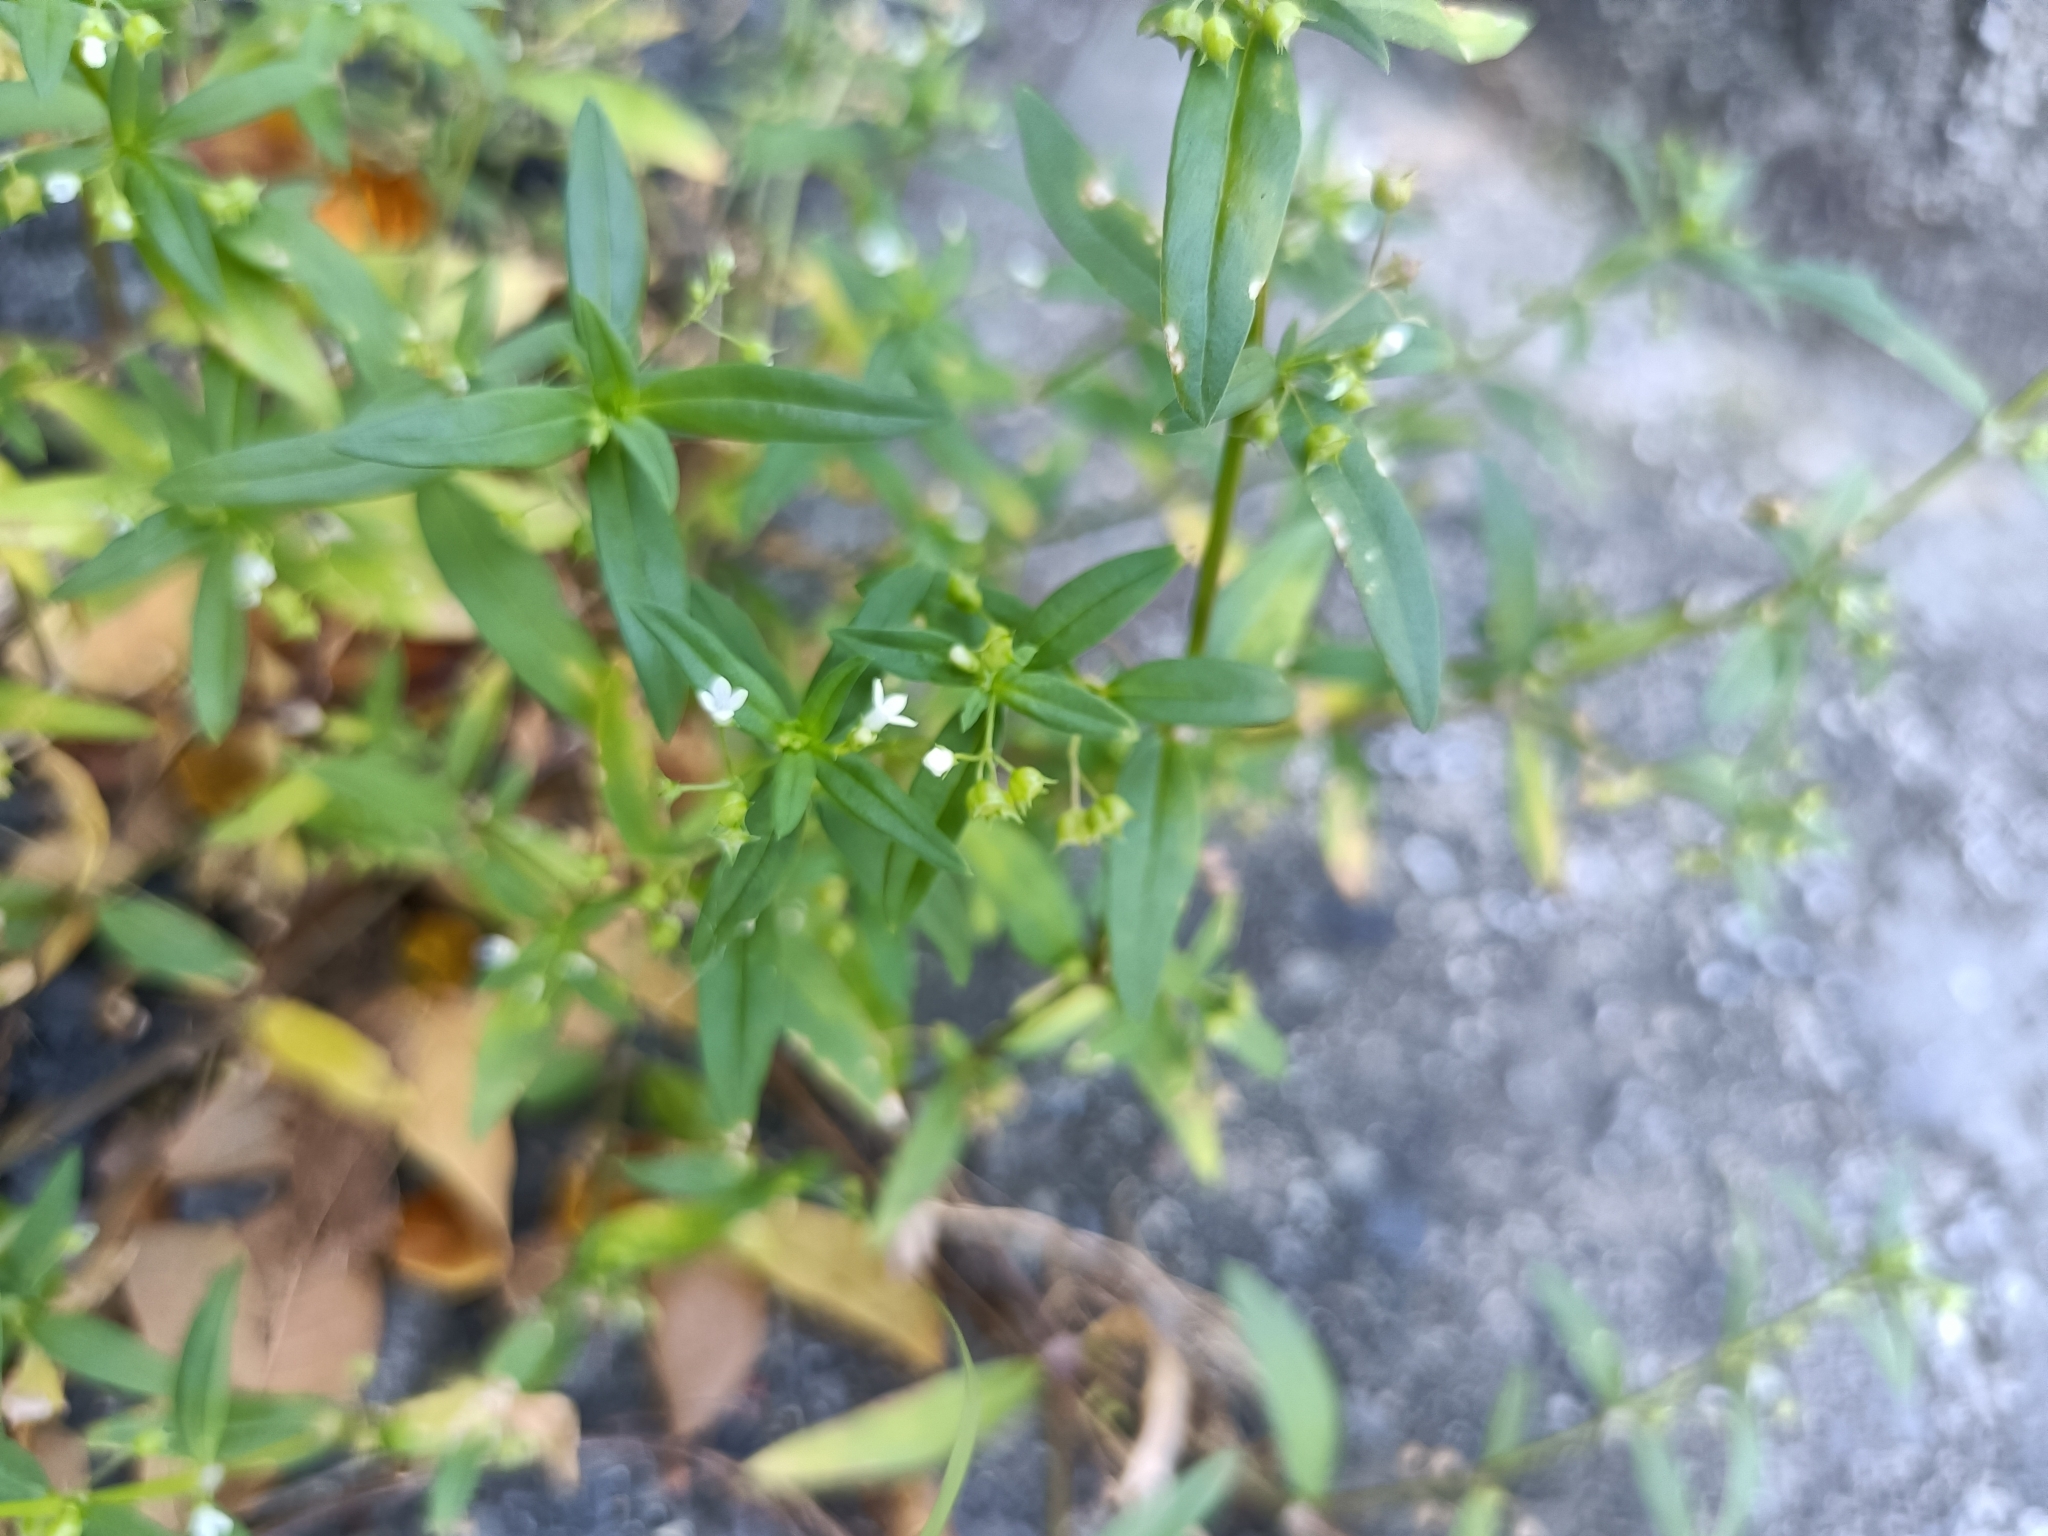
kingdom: Plantae
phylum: Tracheophyta
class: Magnoliopsida
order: Gentianales
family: Rubiaceae
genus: Oldenlandia
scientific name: Oldenlandia corymbosa
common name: Flat-top mille graines
